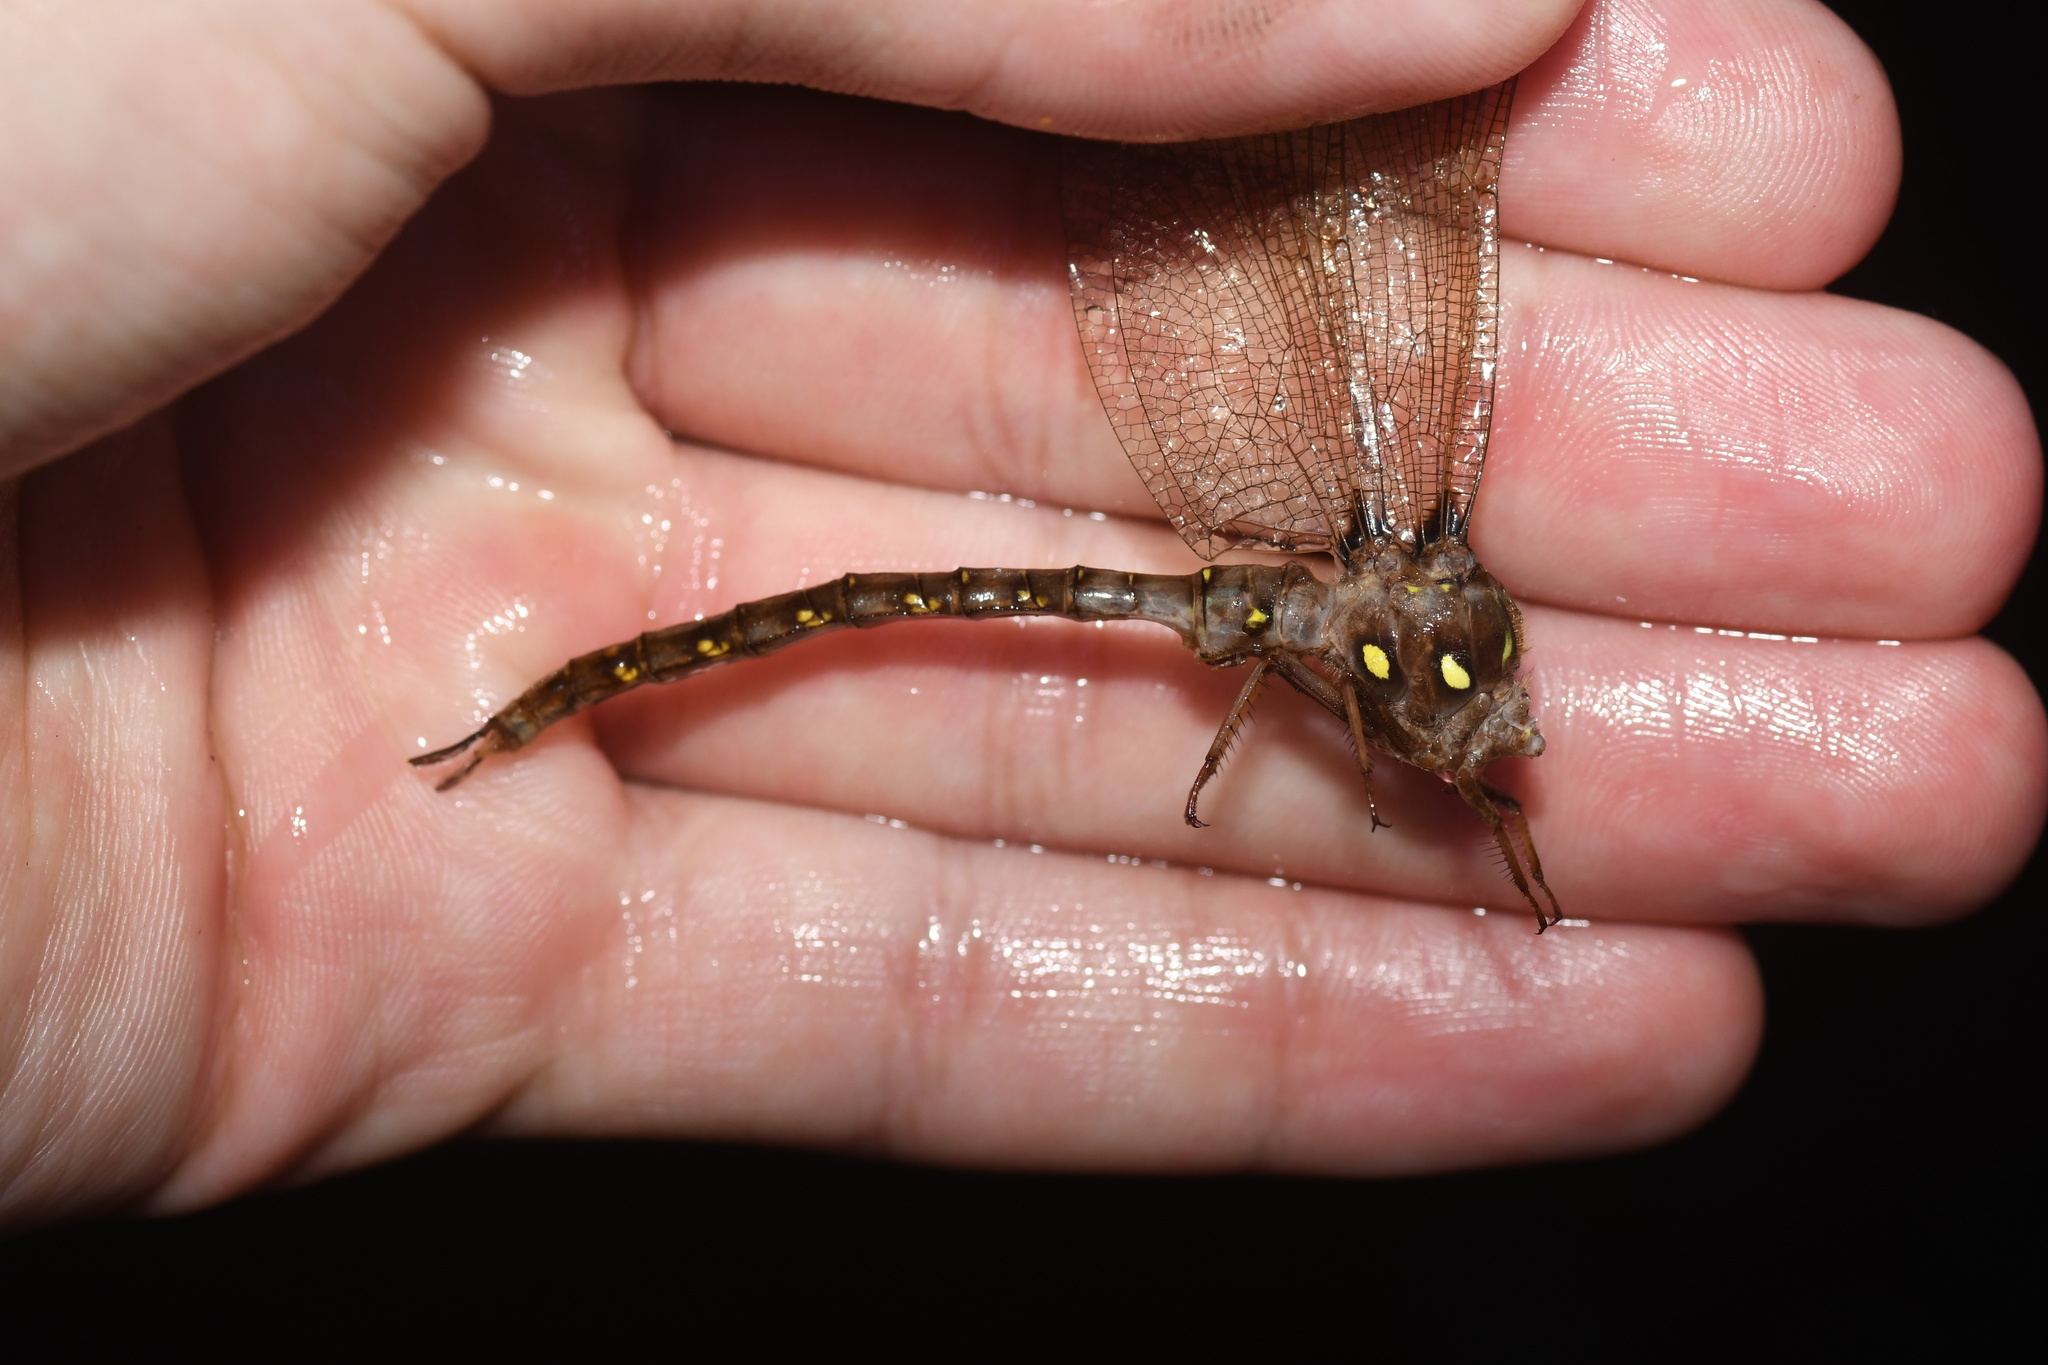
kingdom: Animalia
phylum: Arthropoda
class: Insecta
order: Odonata
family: Aeshnidae
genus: Boyeria
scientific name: Boyeria vinosa
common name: Fawn darner
